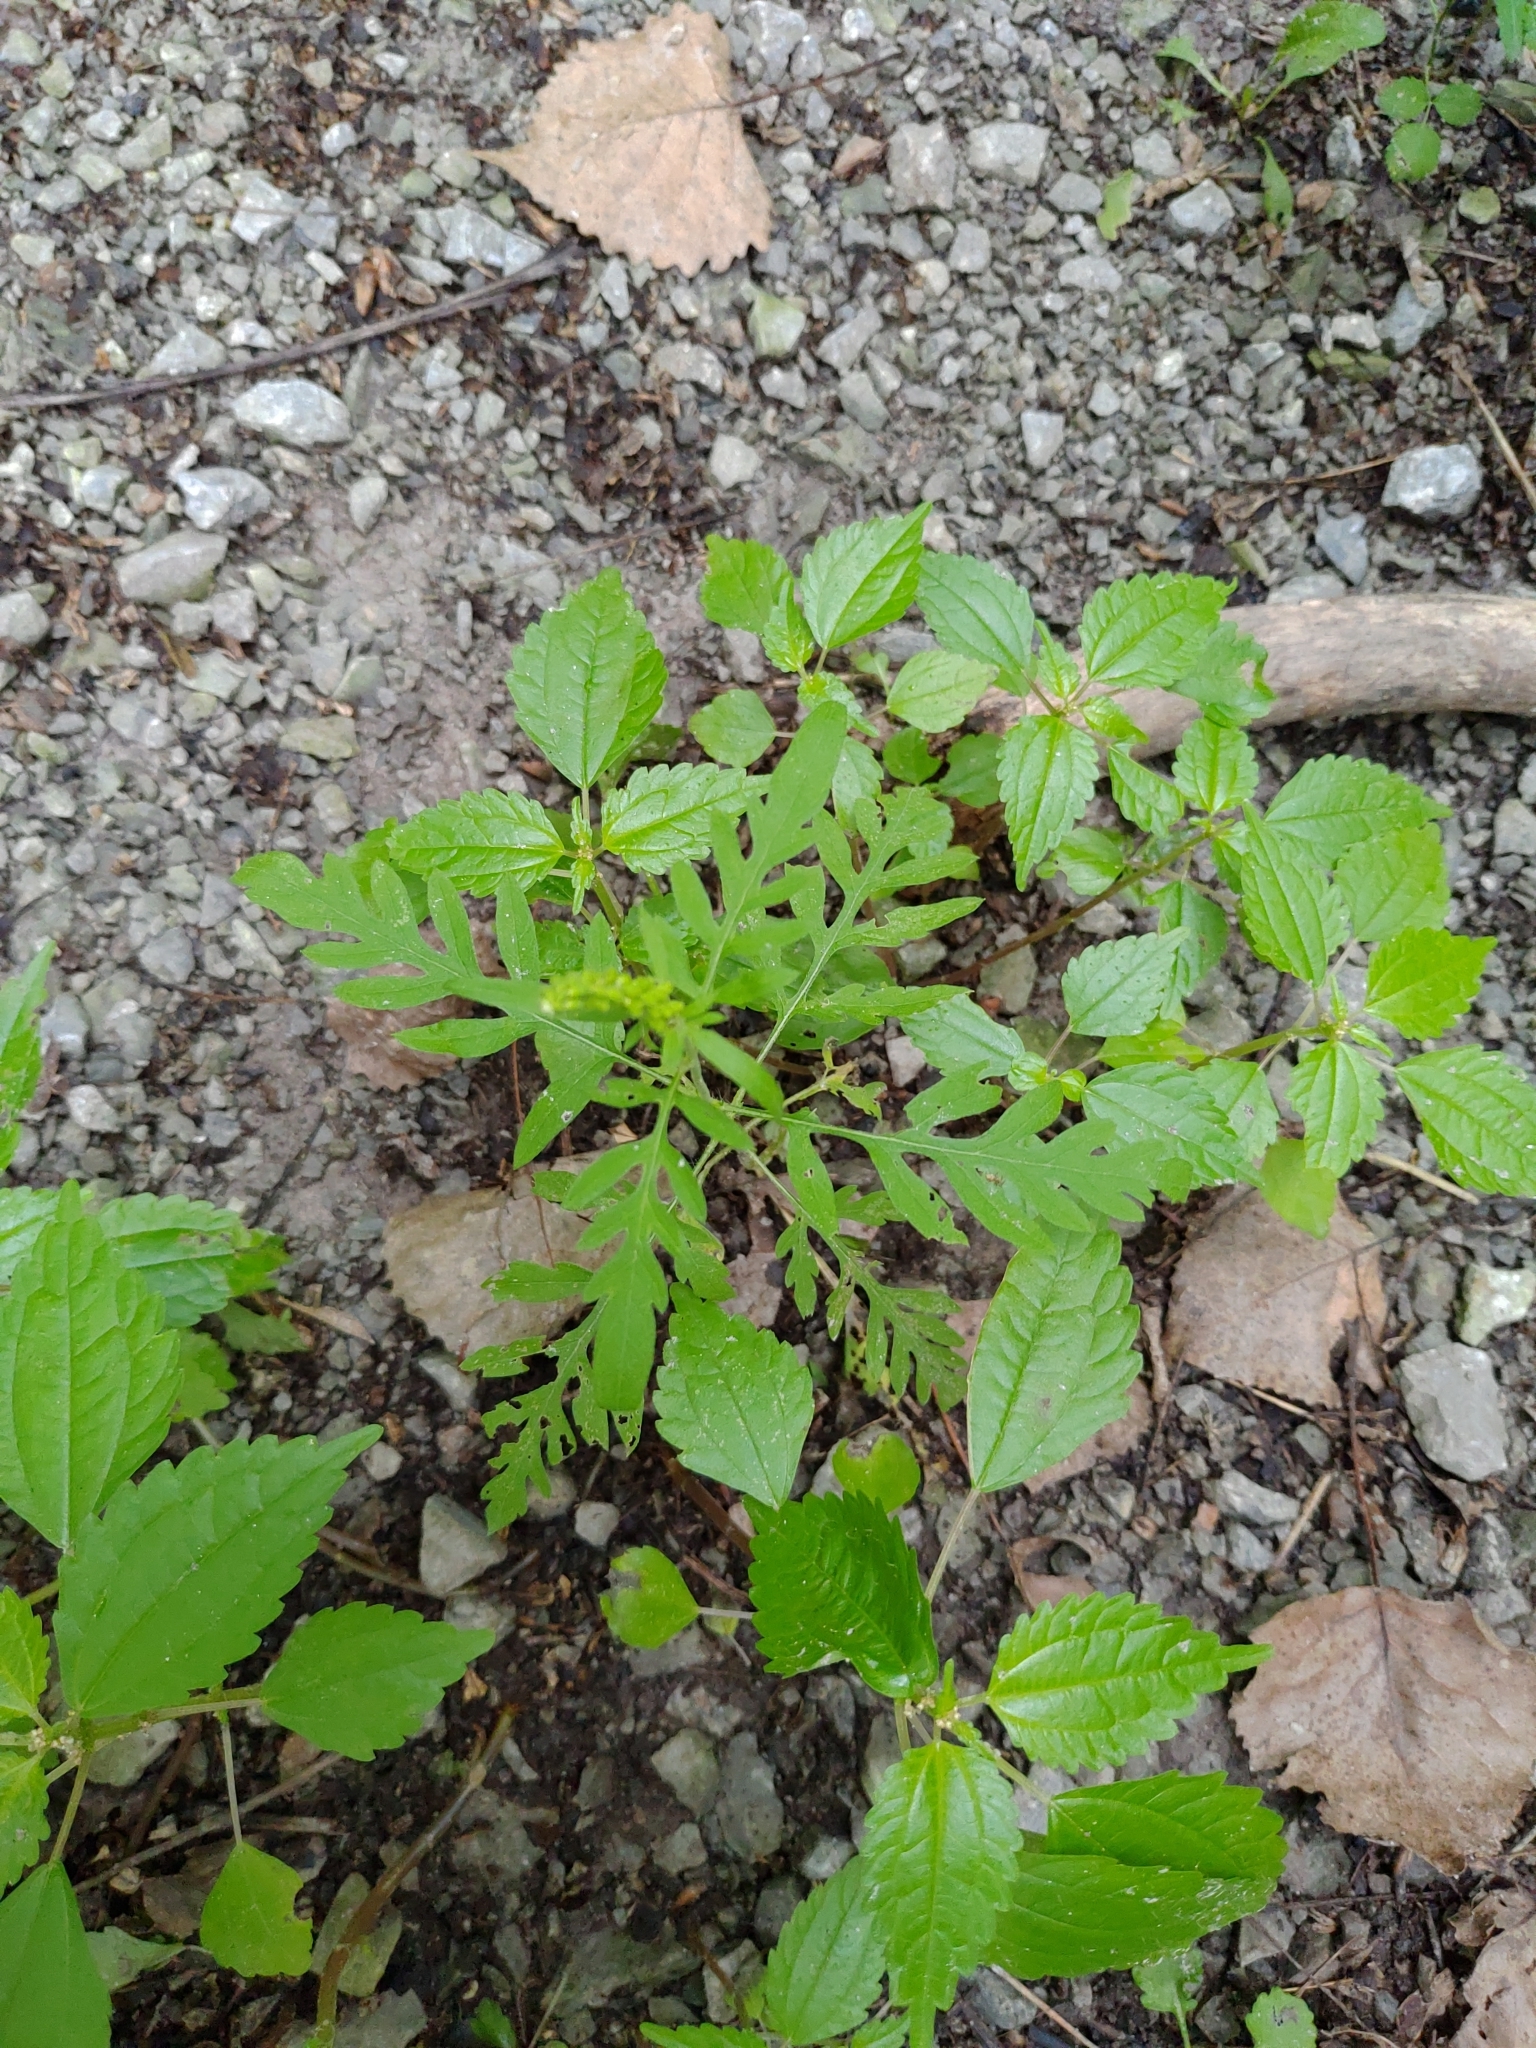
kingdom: Plantae
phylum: Tracheophyta
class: Magnoliopsida
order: Asterales
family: Asteraceae
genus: Ambrosia
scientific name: Ambrosia artemisiifolia
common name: Annual ragweed
